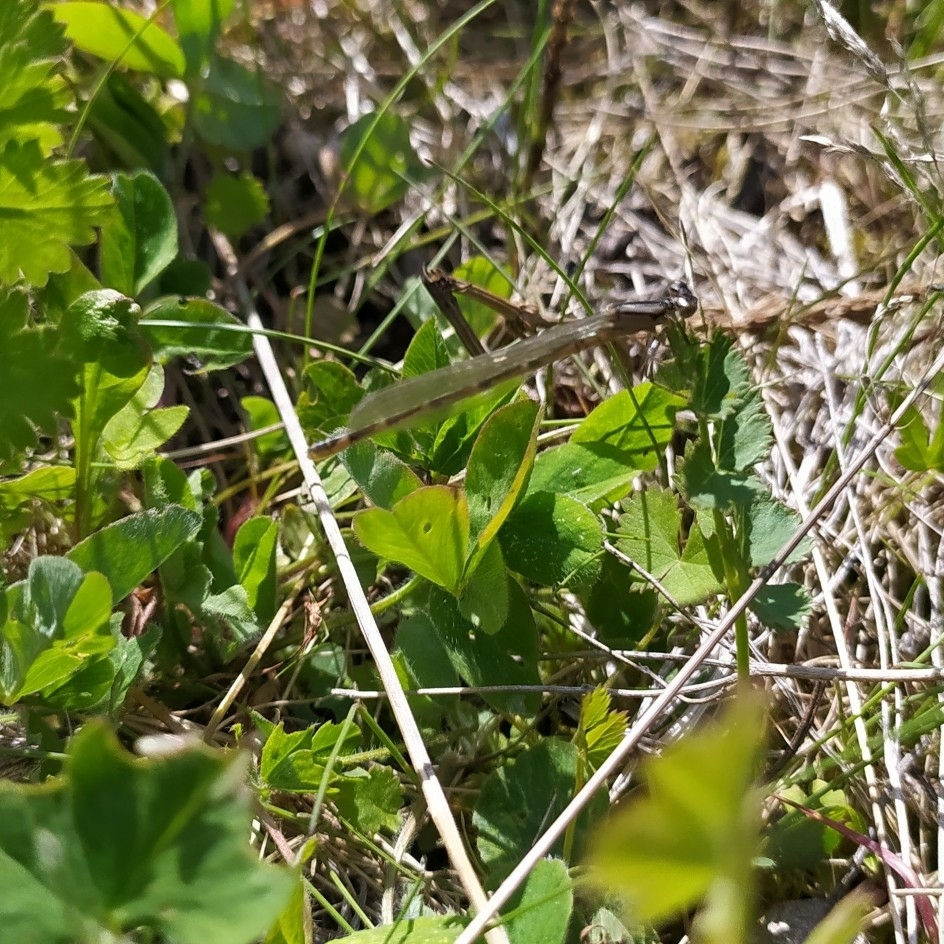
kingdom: Animalia
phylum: Arthropoda
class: Insecta
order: Odonata
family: Coenagrionidae
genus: Enallagma
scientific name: Enallagma cyathigerum
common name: Common blue damselfly
